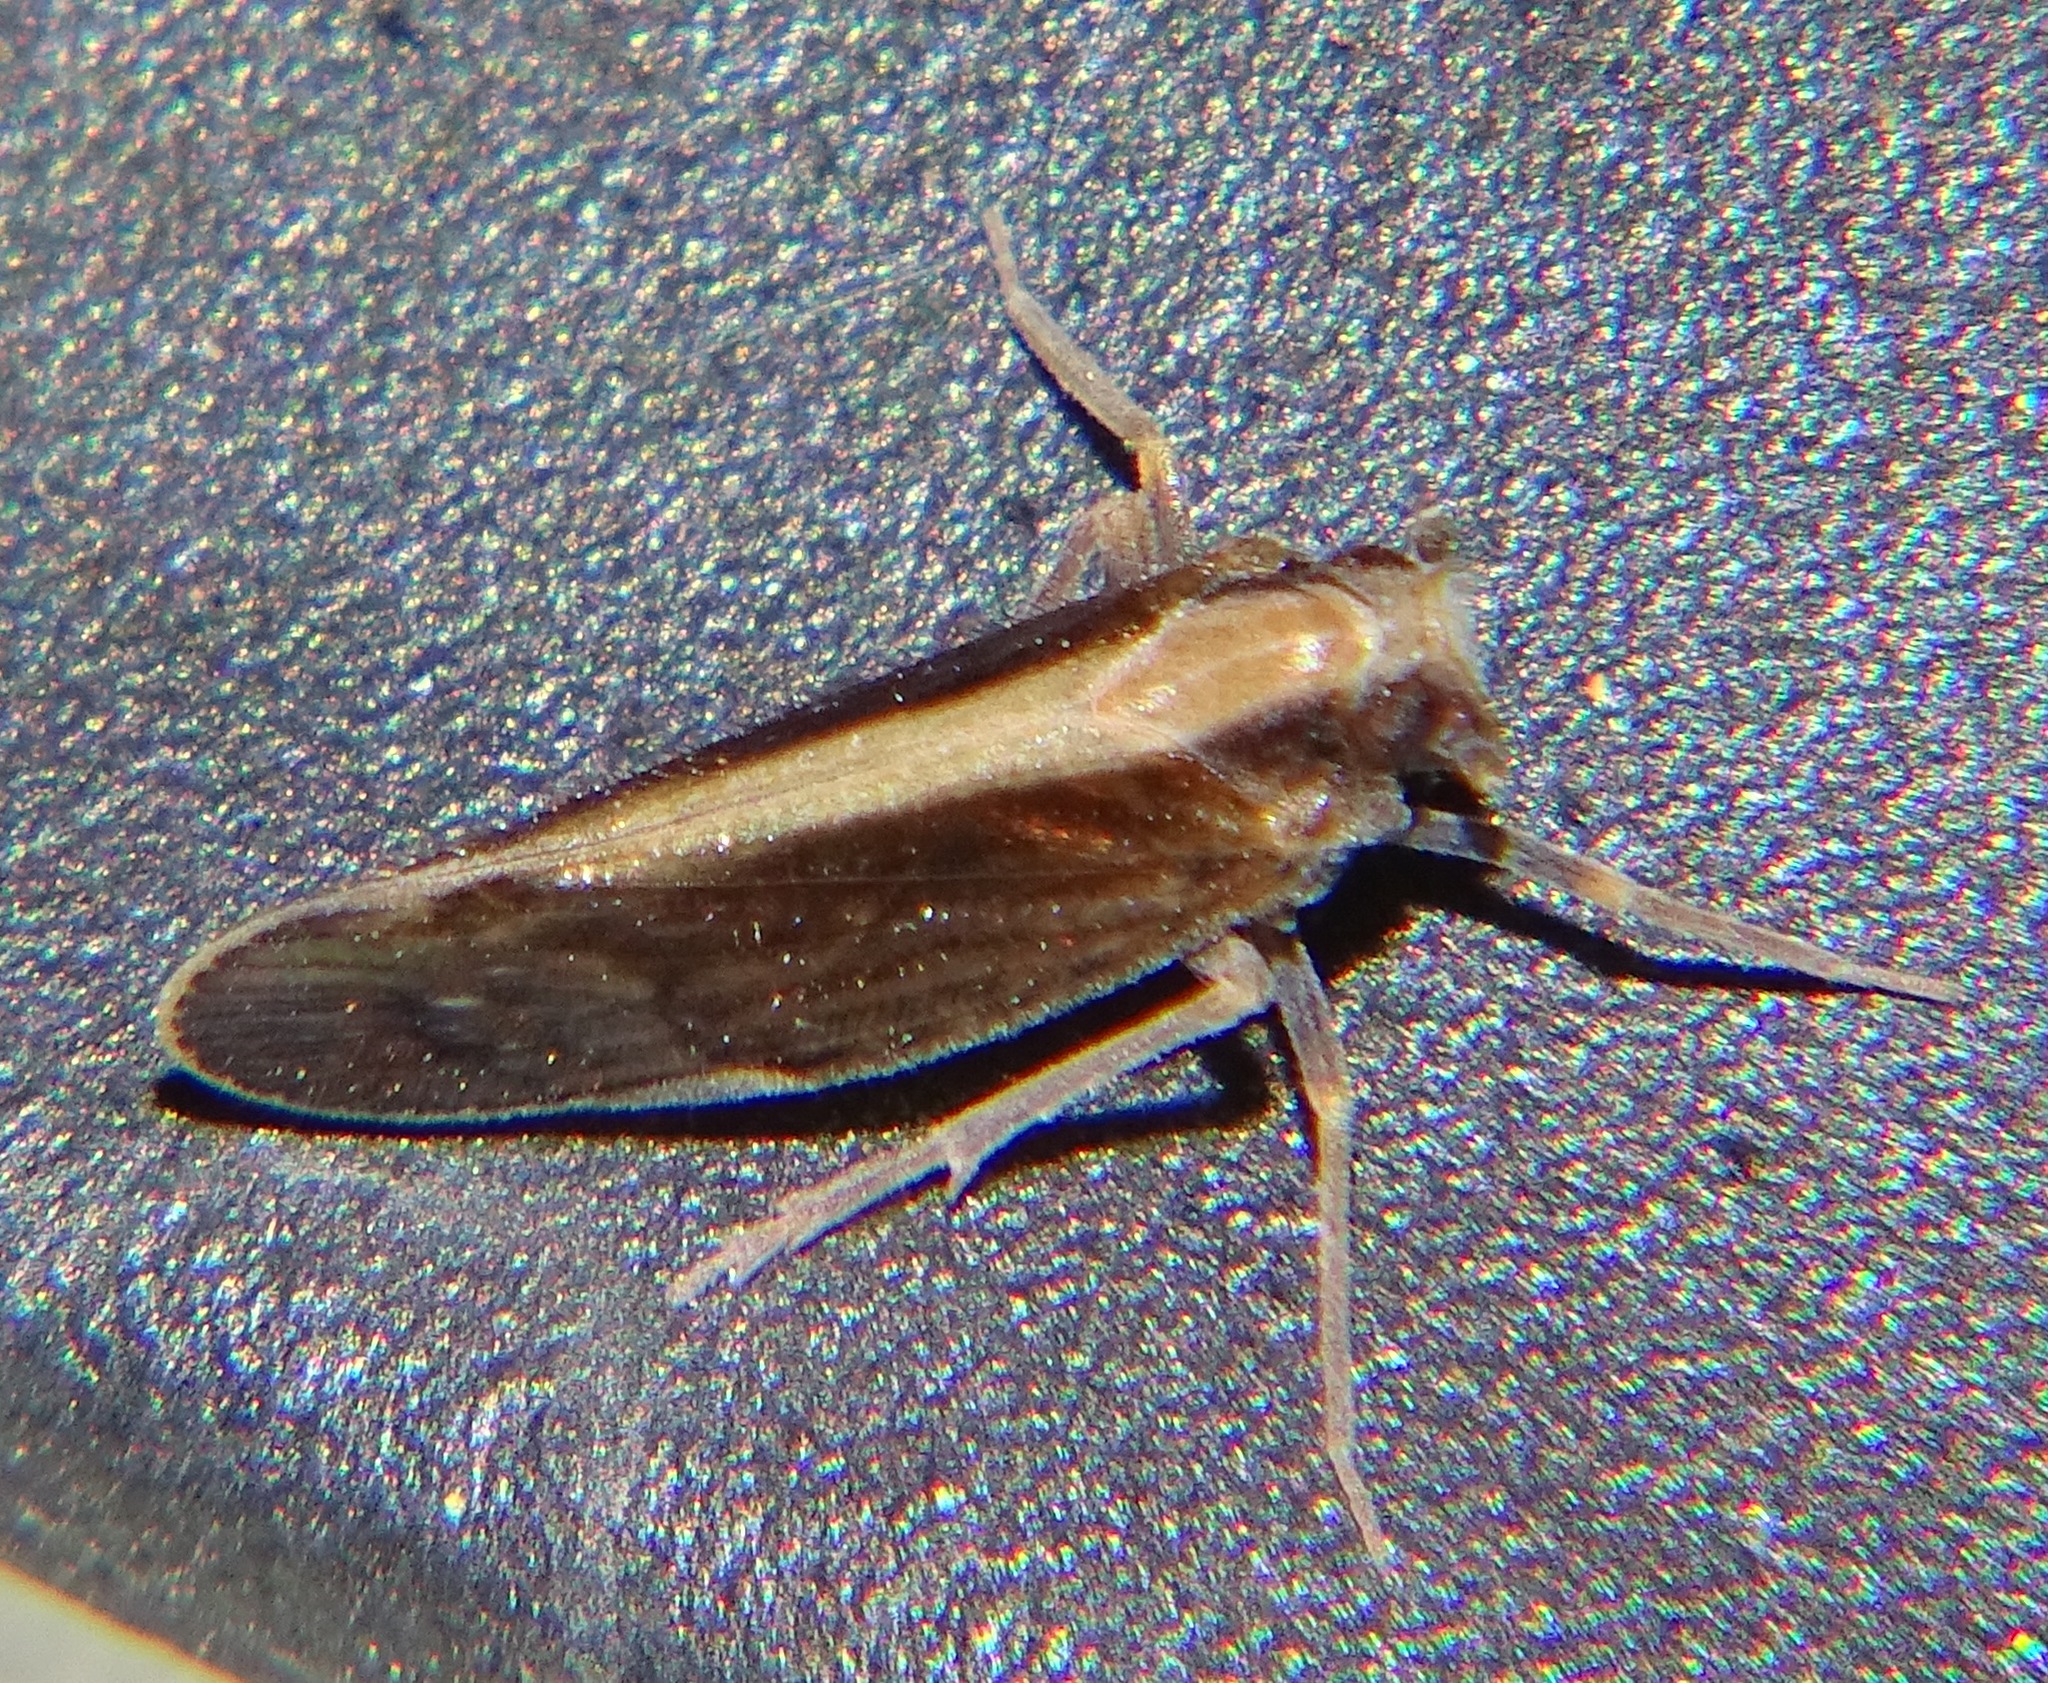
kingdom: Animalia
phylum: Arthropoda
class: Insecta
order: Hemiptera
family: Cixiidae
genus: Pintalia
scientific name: Pintalia delicata
